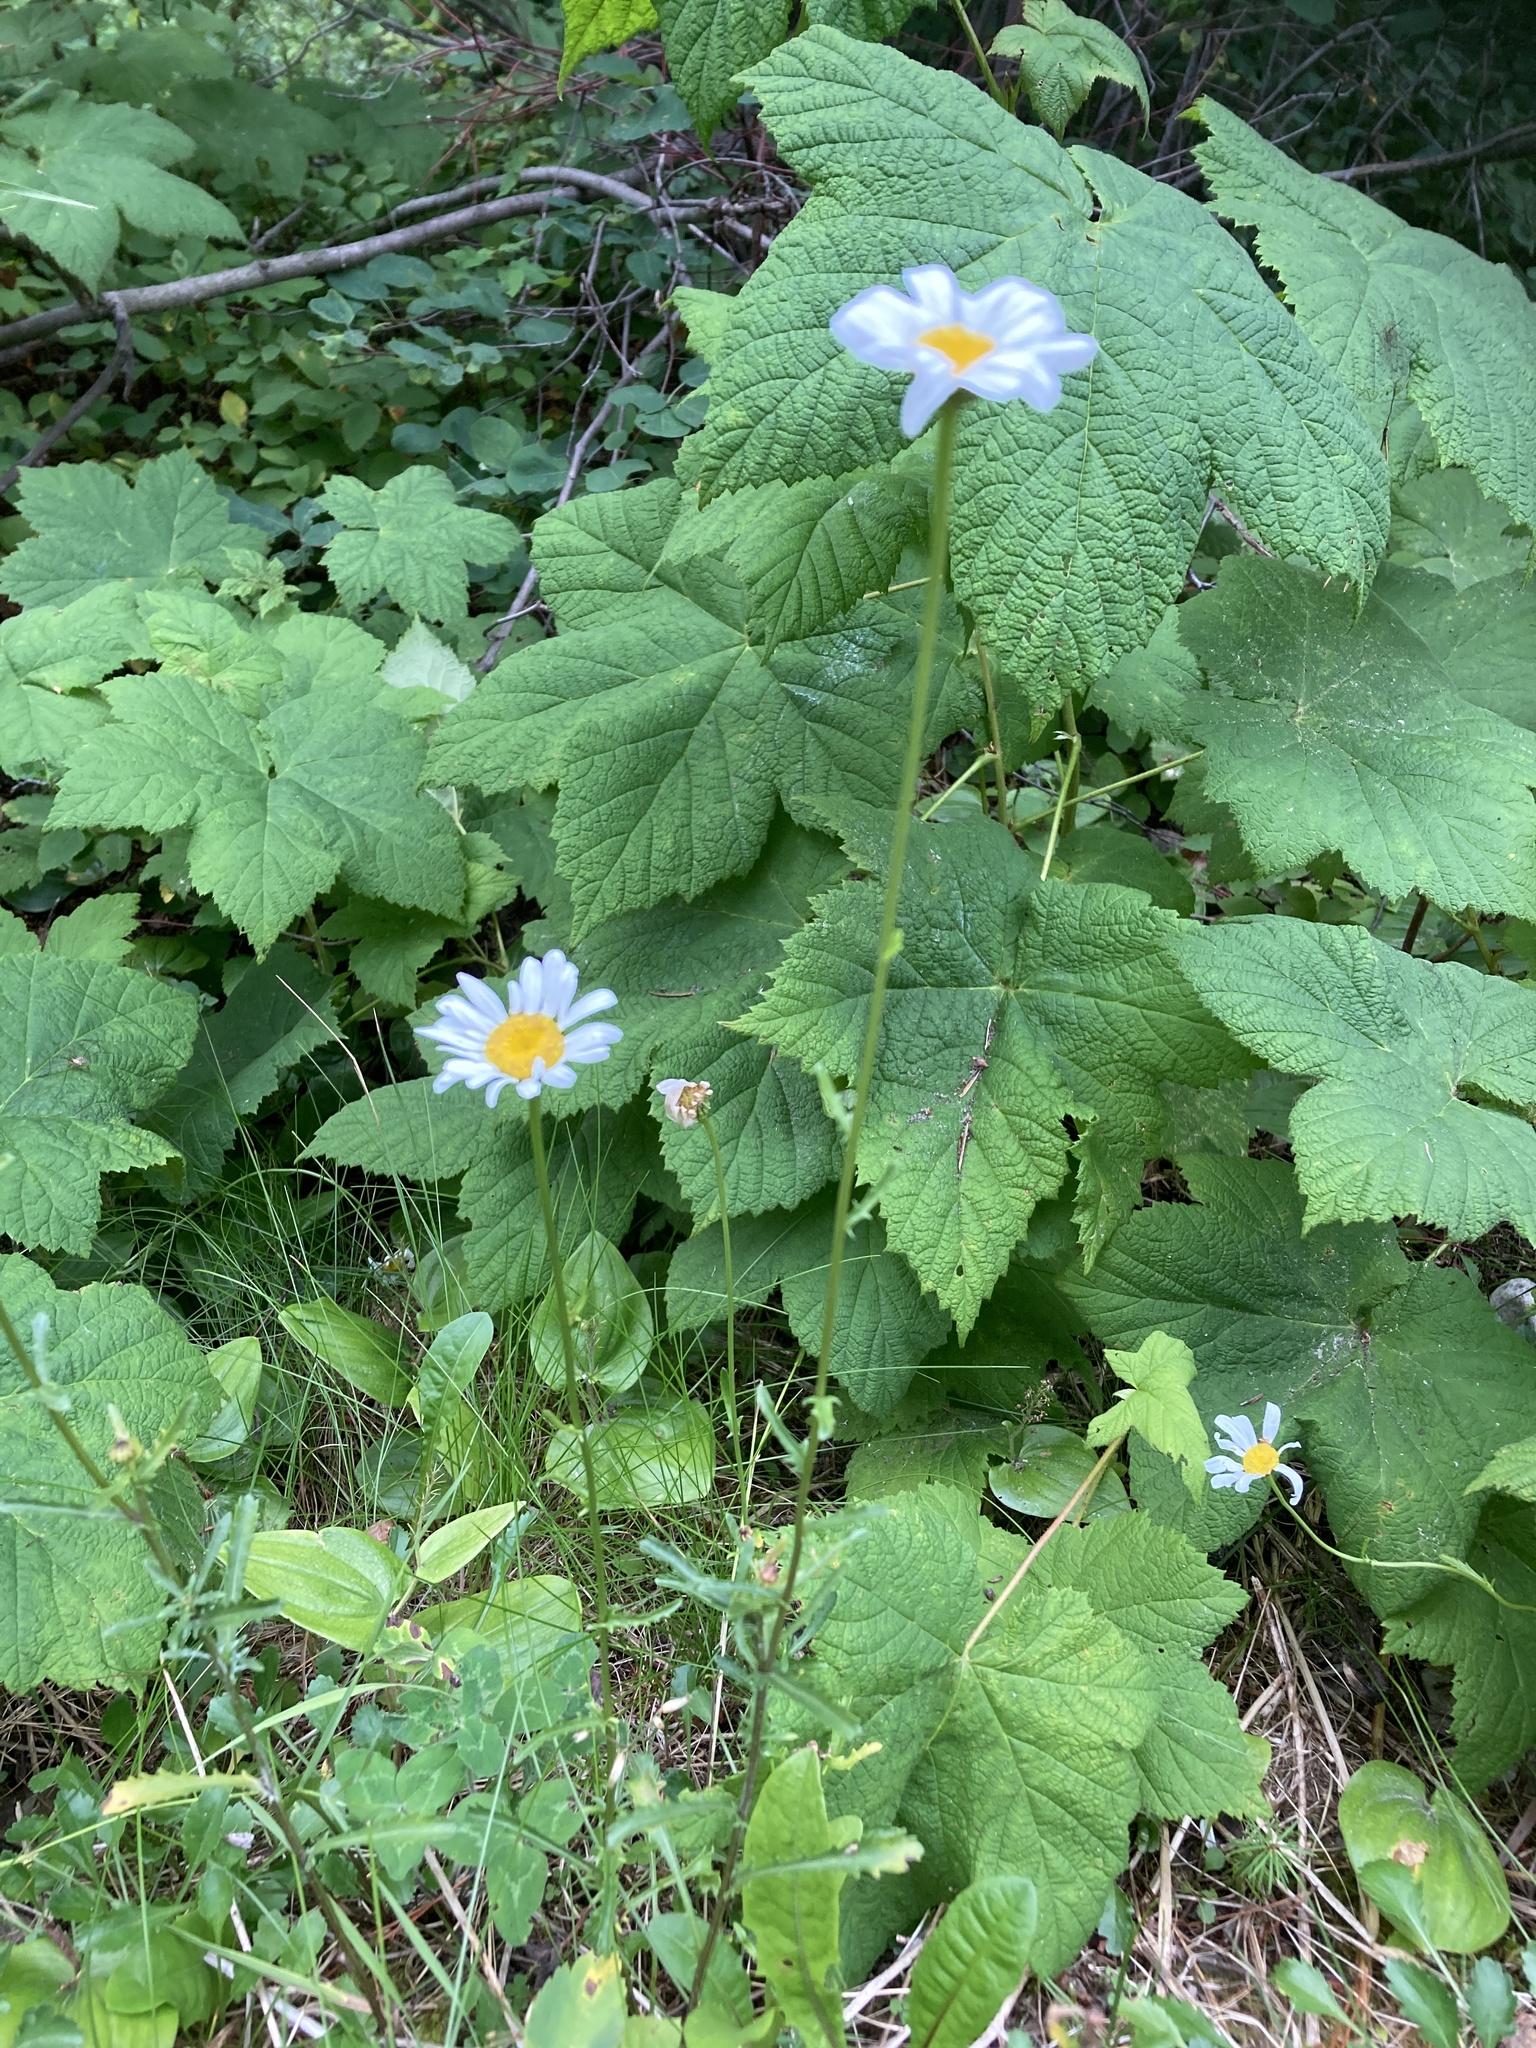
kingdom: Plantae
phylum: Tracheophyta
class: Magnoliopsida
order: Asterales
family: Asteraceae
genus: Leucanthemum
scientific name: Leucanthemum vulgare
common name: Oxeye daisy
